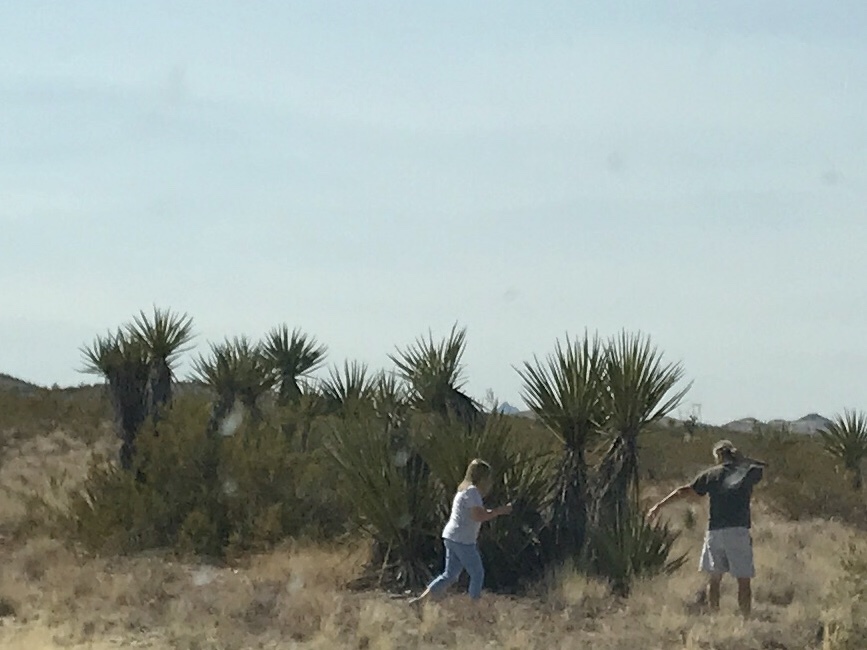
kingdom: Plantae
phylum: Tracheophyta
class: Liliopsida
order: Asparagales
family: Asparagaceae
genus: Yucca
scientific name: Yucca schidigera
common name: Mojave yucca
